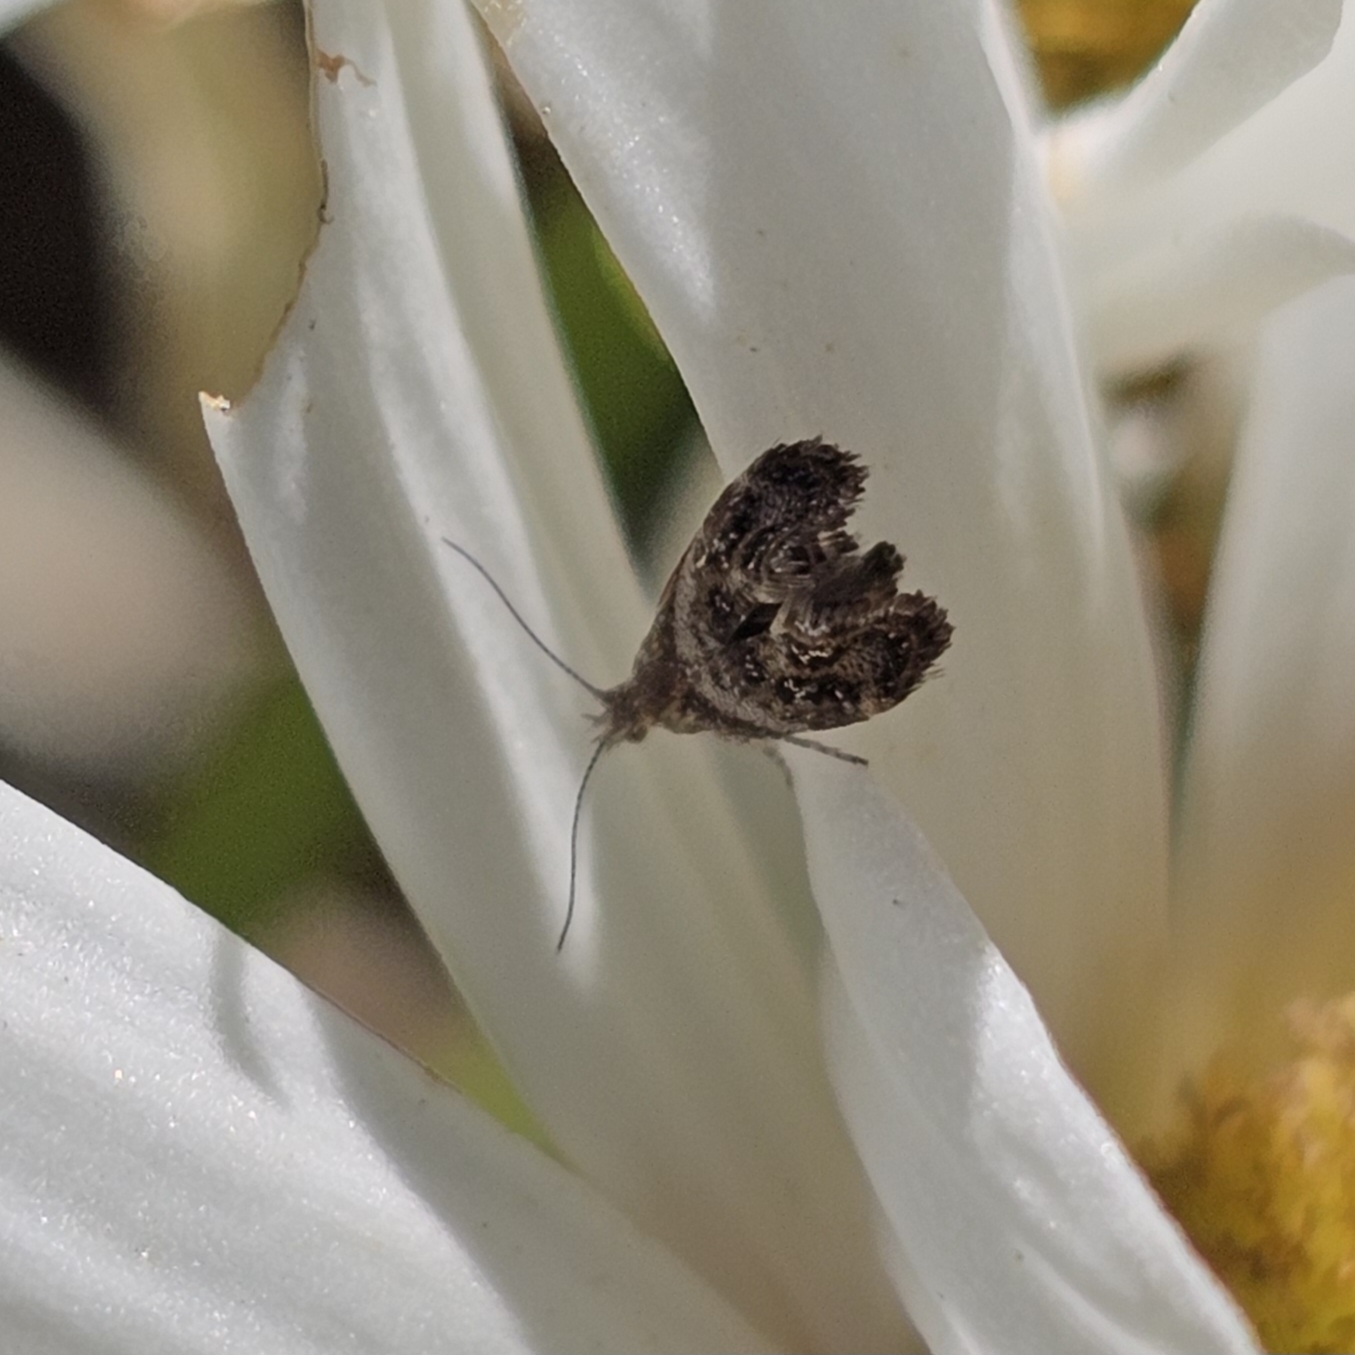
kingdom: Animalia
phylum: Arthropoda
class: Insecta
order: Lepidoptera
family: Choreutidae
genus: Tebenna
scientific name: Tebenna gnaphaliella
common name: Everlasting tebenna moth
